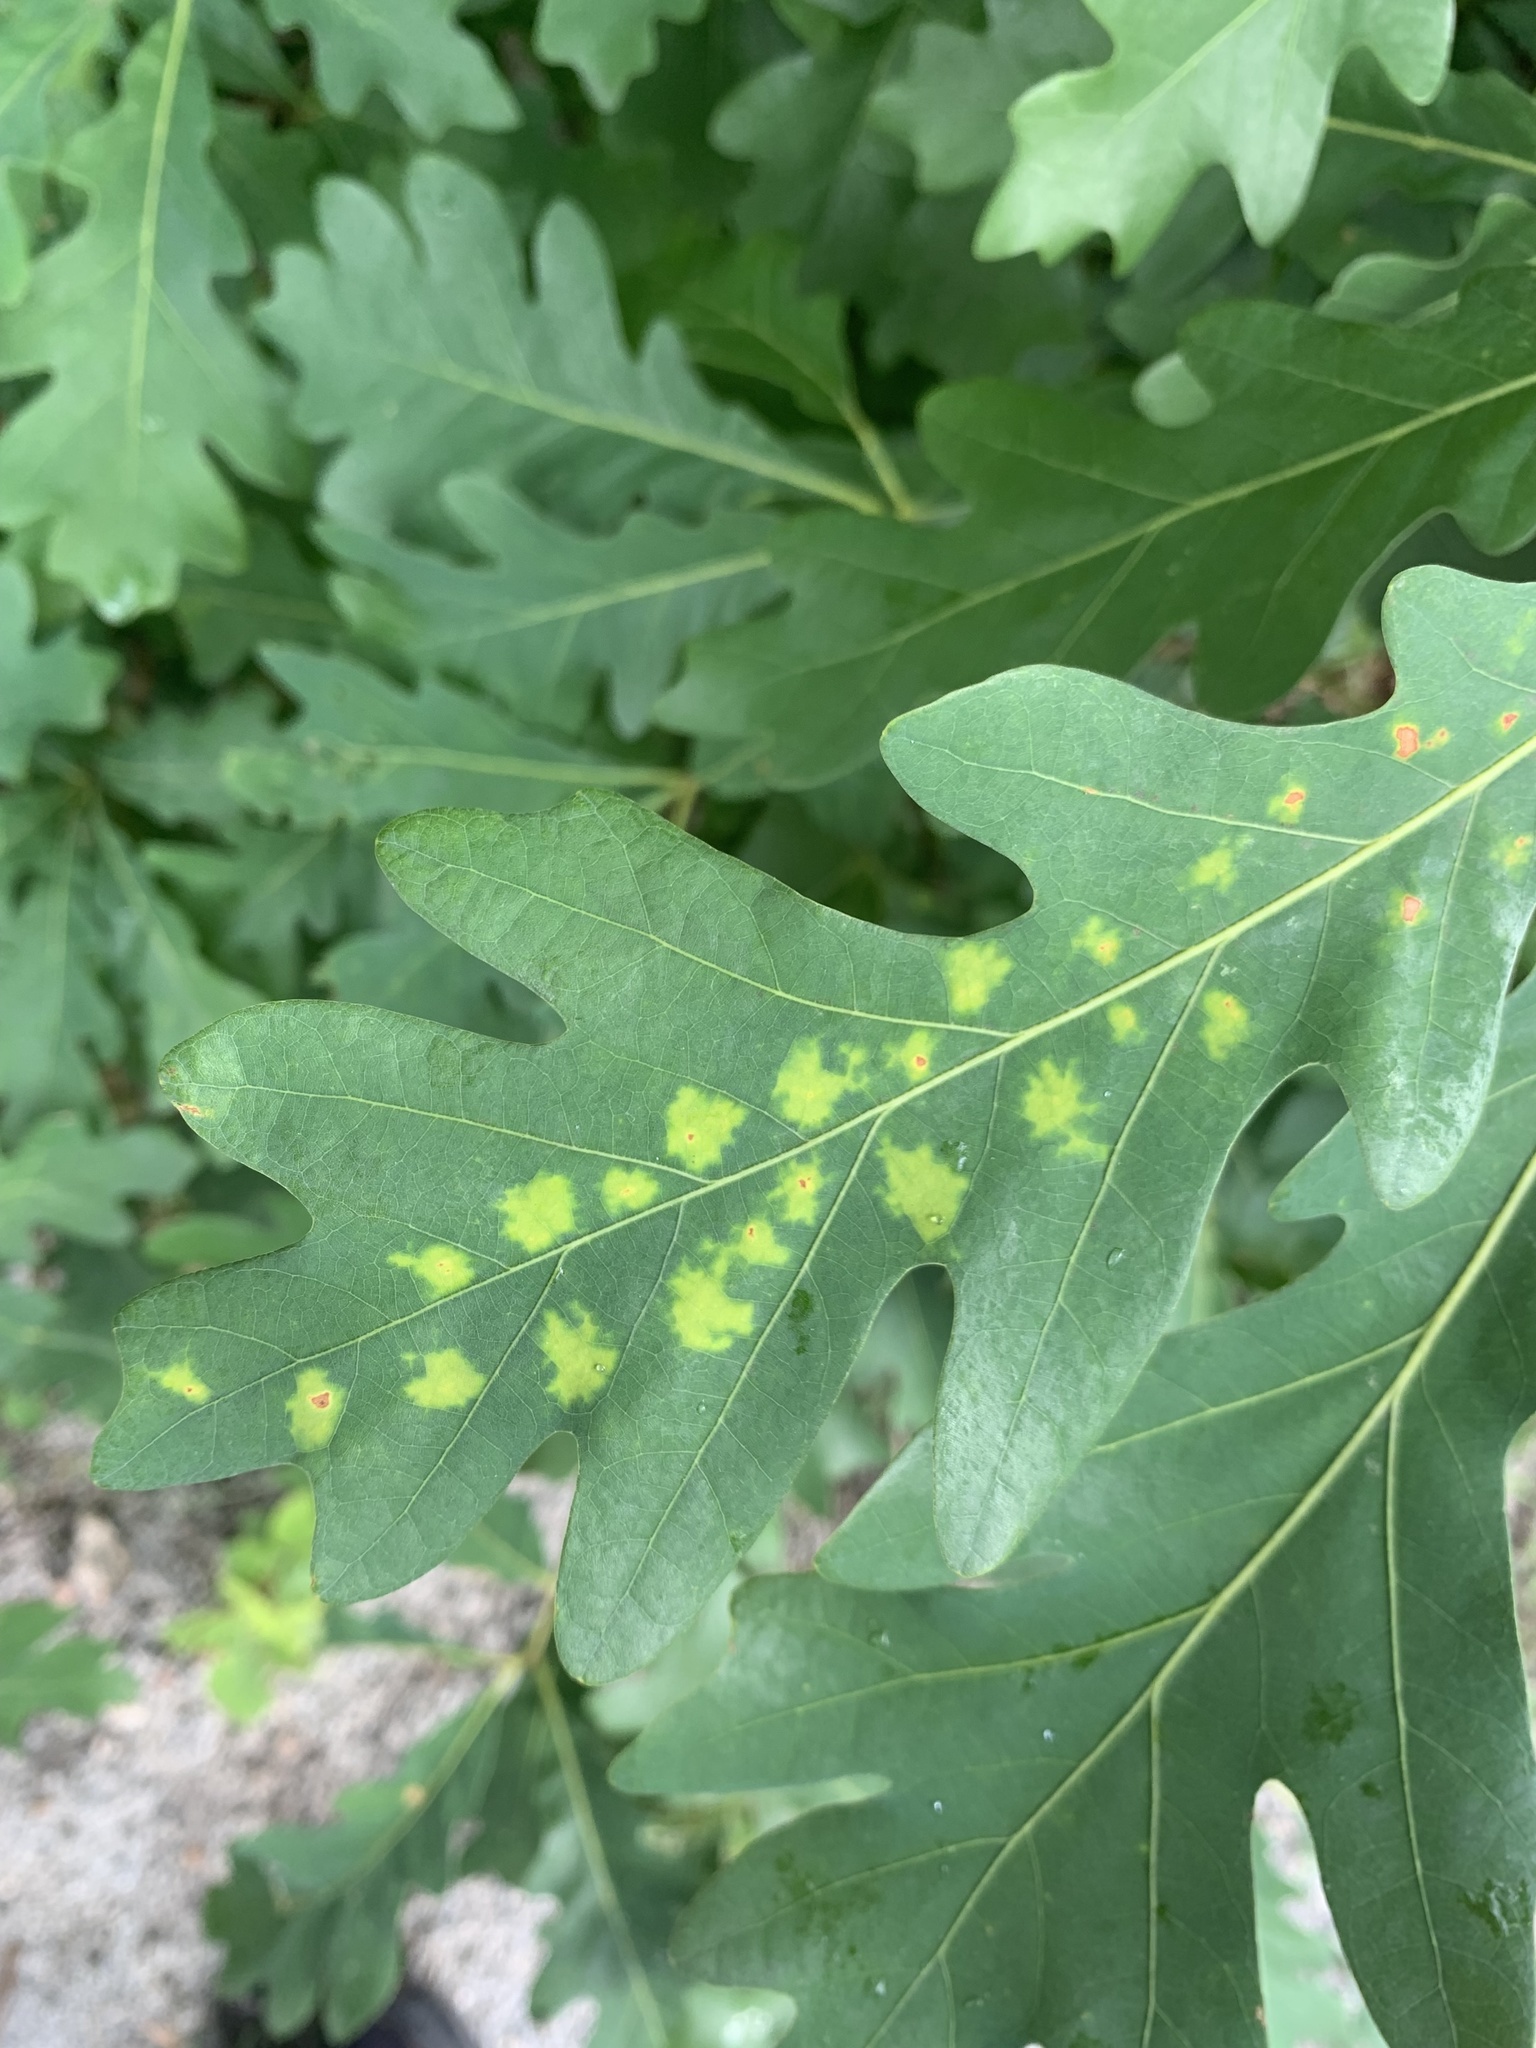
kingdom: Fungi
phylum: Ascomycota
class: Taphrinomycetes
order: Taphrinales
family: Taphrinaceae
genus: Taphrina
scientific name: Taphrina caerulescens
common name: Oak leaf blister
